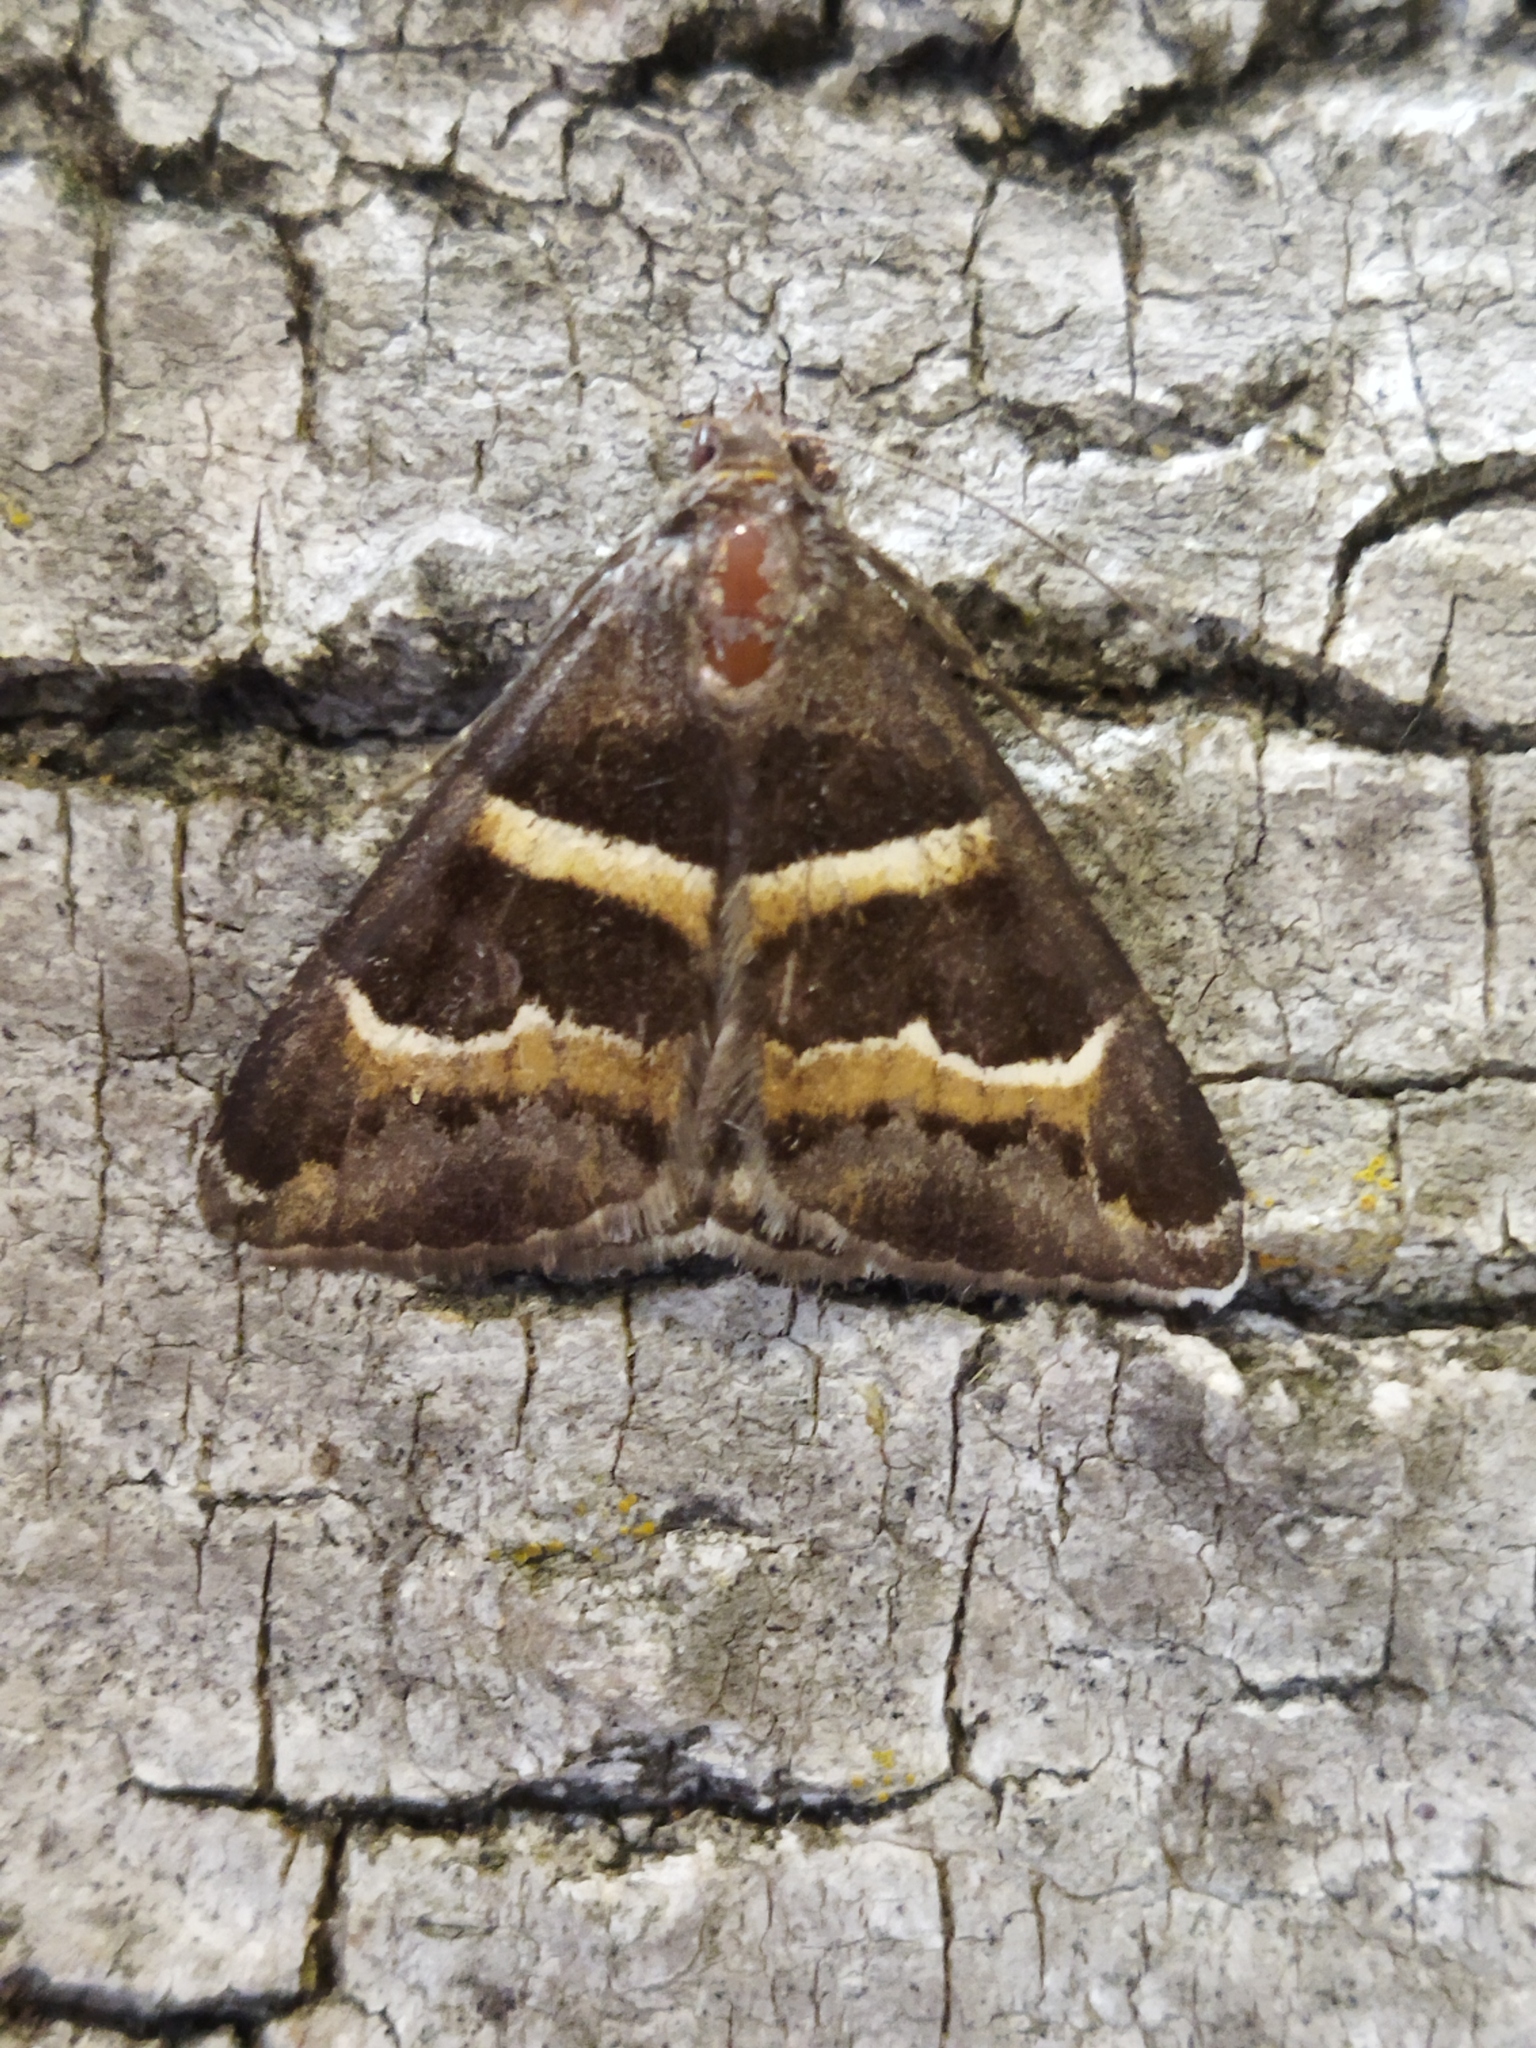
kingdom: Animalia
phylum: Arthropoda
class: Insecta
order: Lepidoptera
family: Erebidae
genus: Grammodes
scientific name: Grammodes stolida
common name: Geometrician
